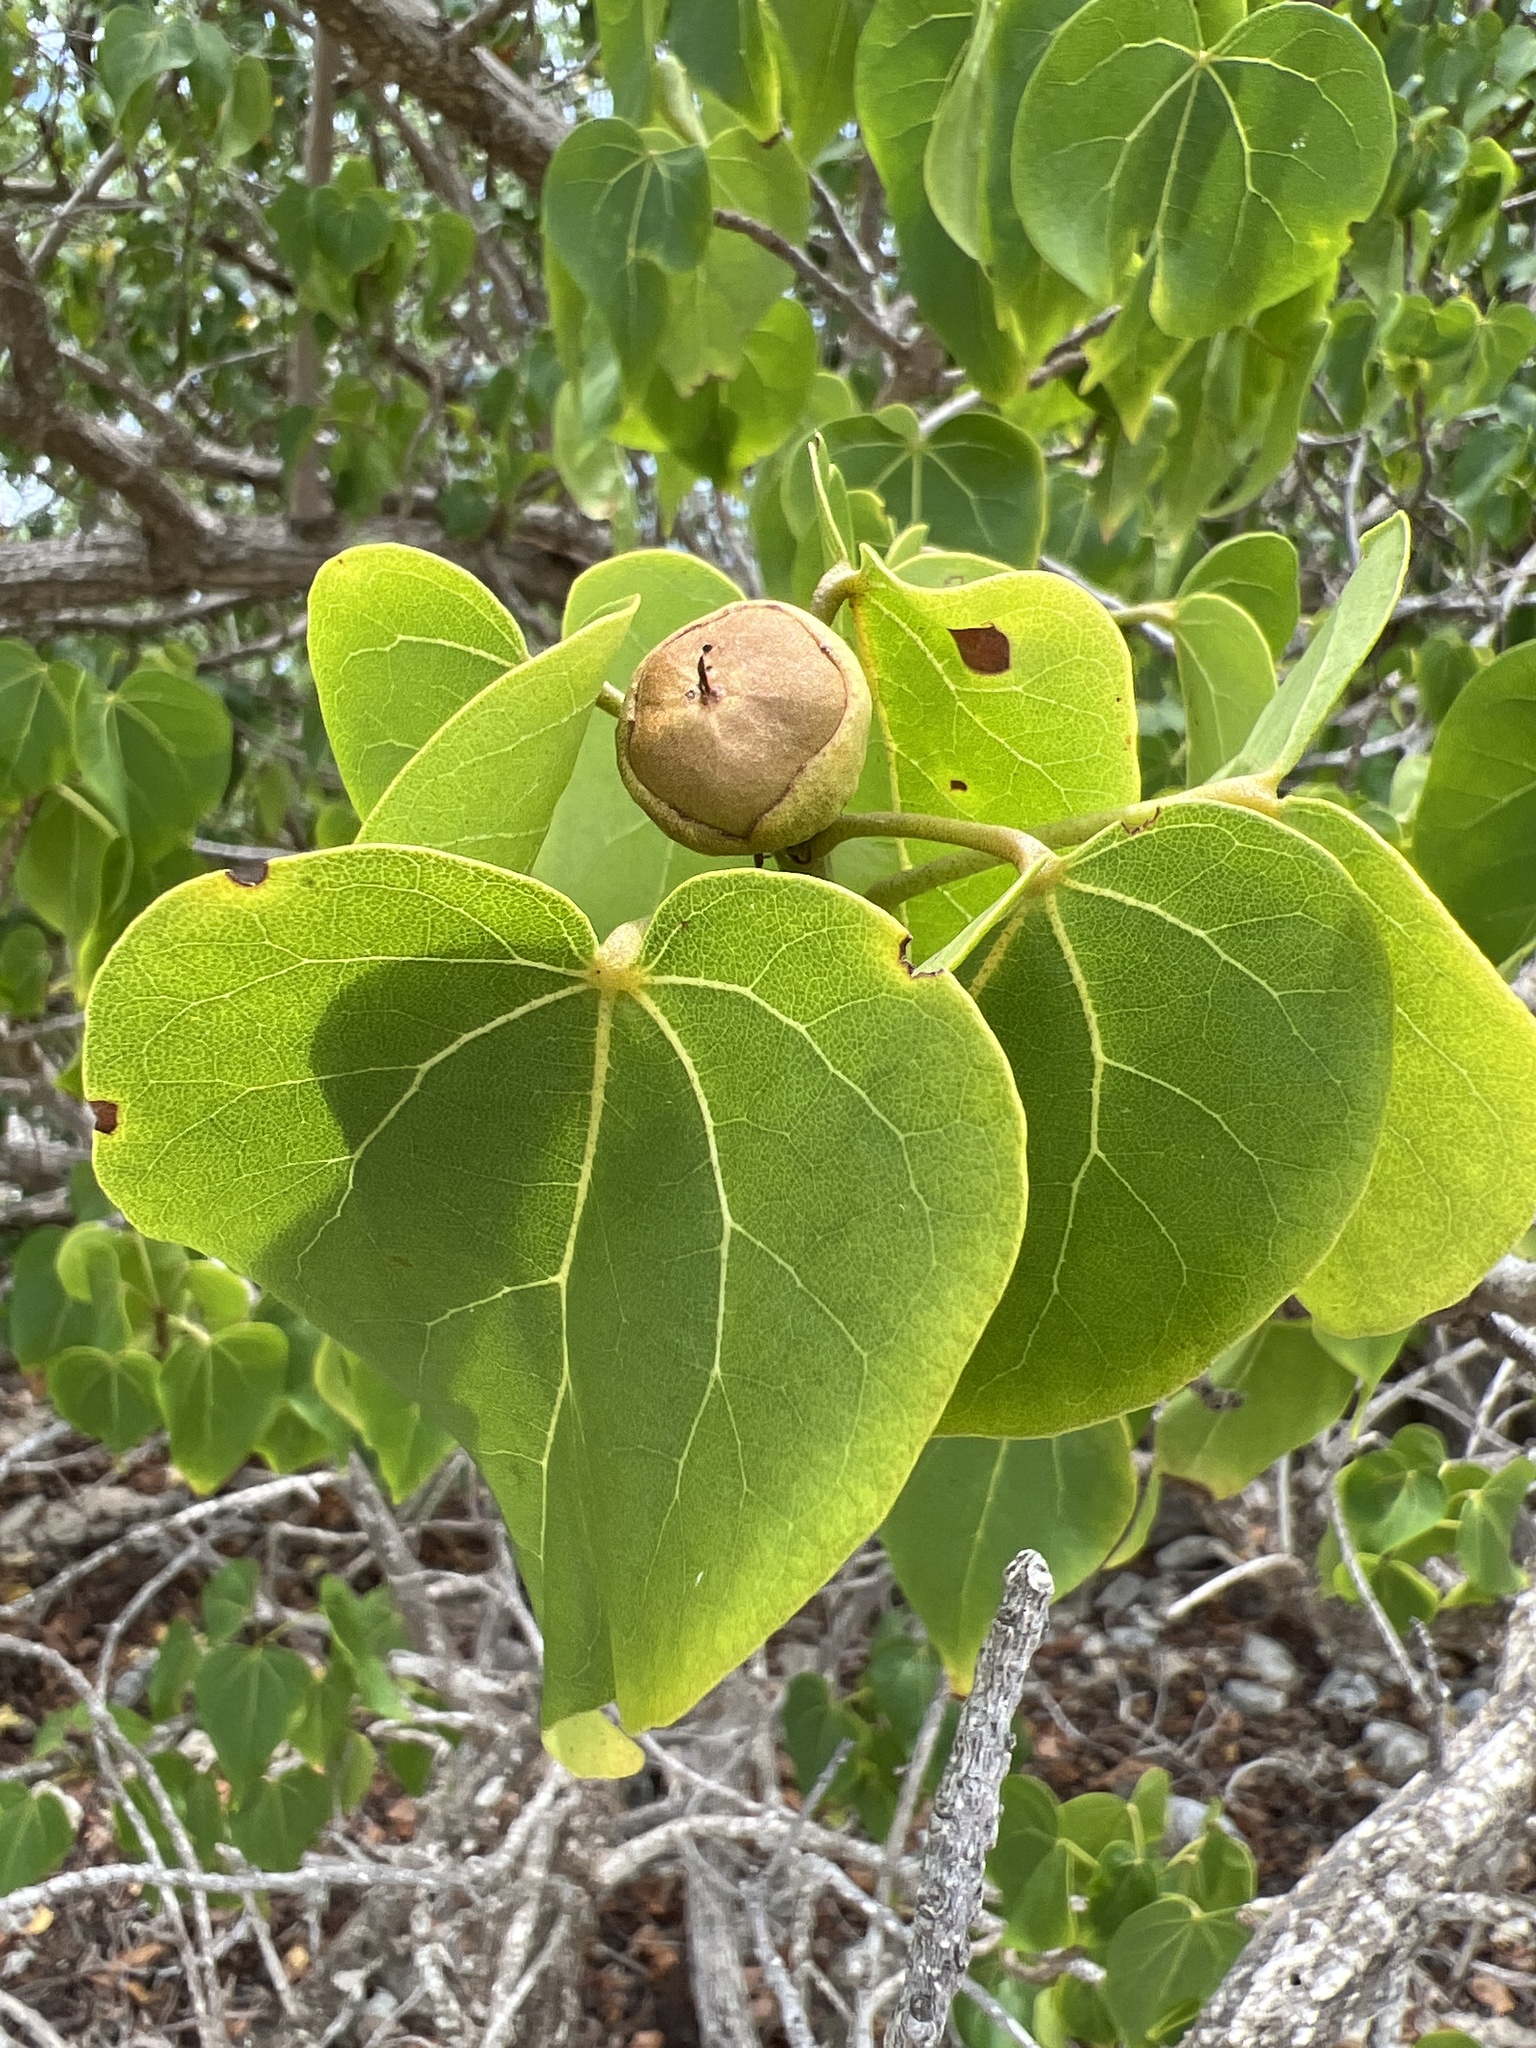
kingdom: Plantae
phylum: Tracheophyta
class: Magnoliopsida
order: Malvales
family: Malvaceae
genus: Thespesia
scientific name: Thespesia populnea
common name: Seaside mahoe
